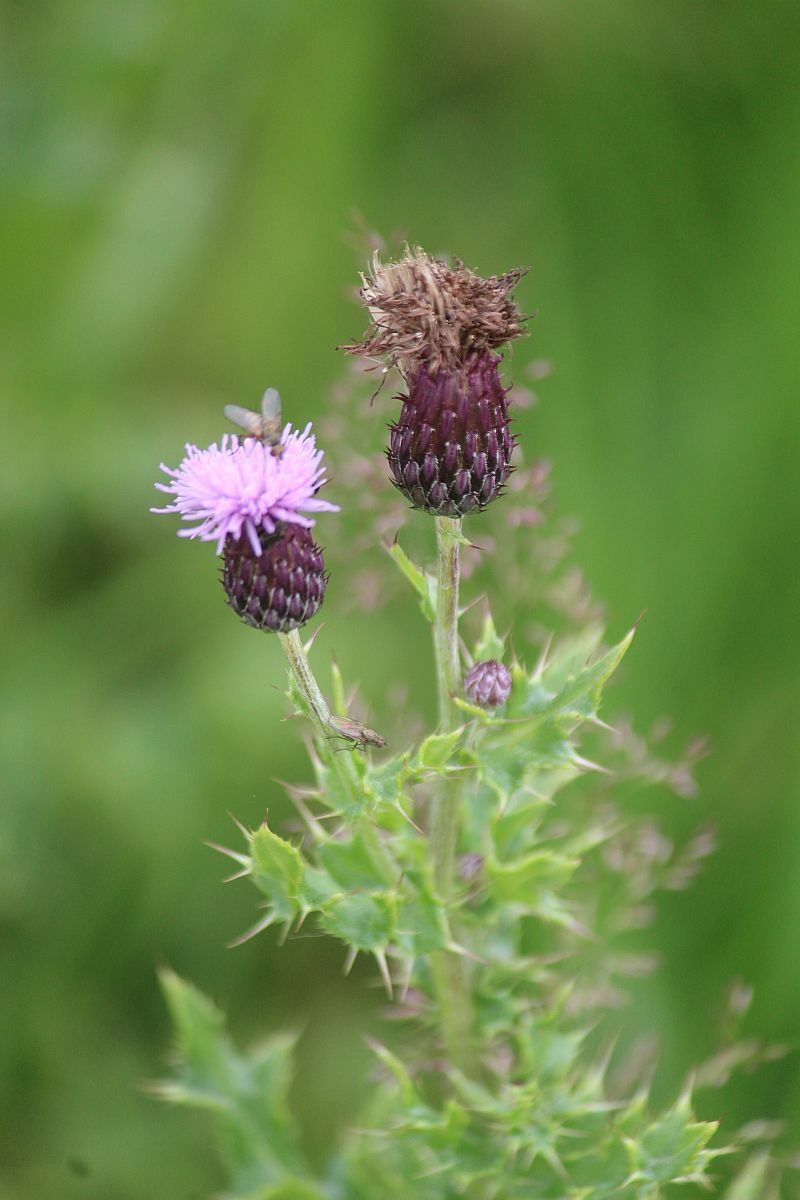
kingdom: Plantae
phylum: Tracheophyta
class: Magnoliopsida
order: Asterales
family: Asteraceae
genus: Cirsium
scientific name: Cirsium arvense
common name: Creeping thistle
